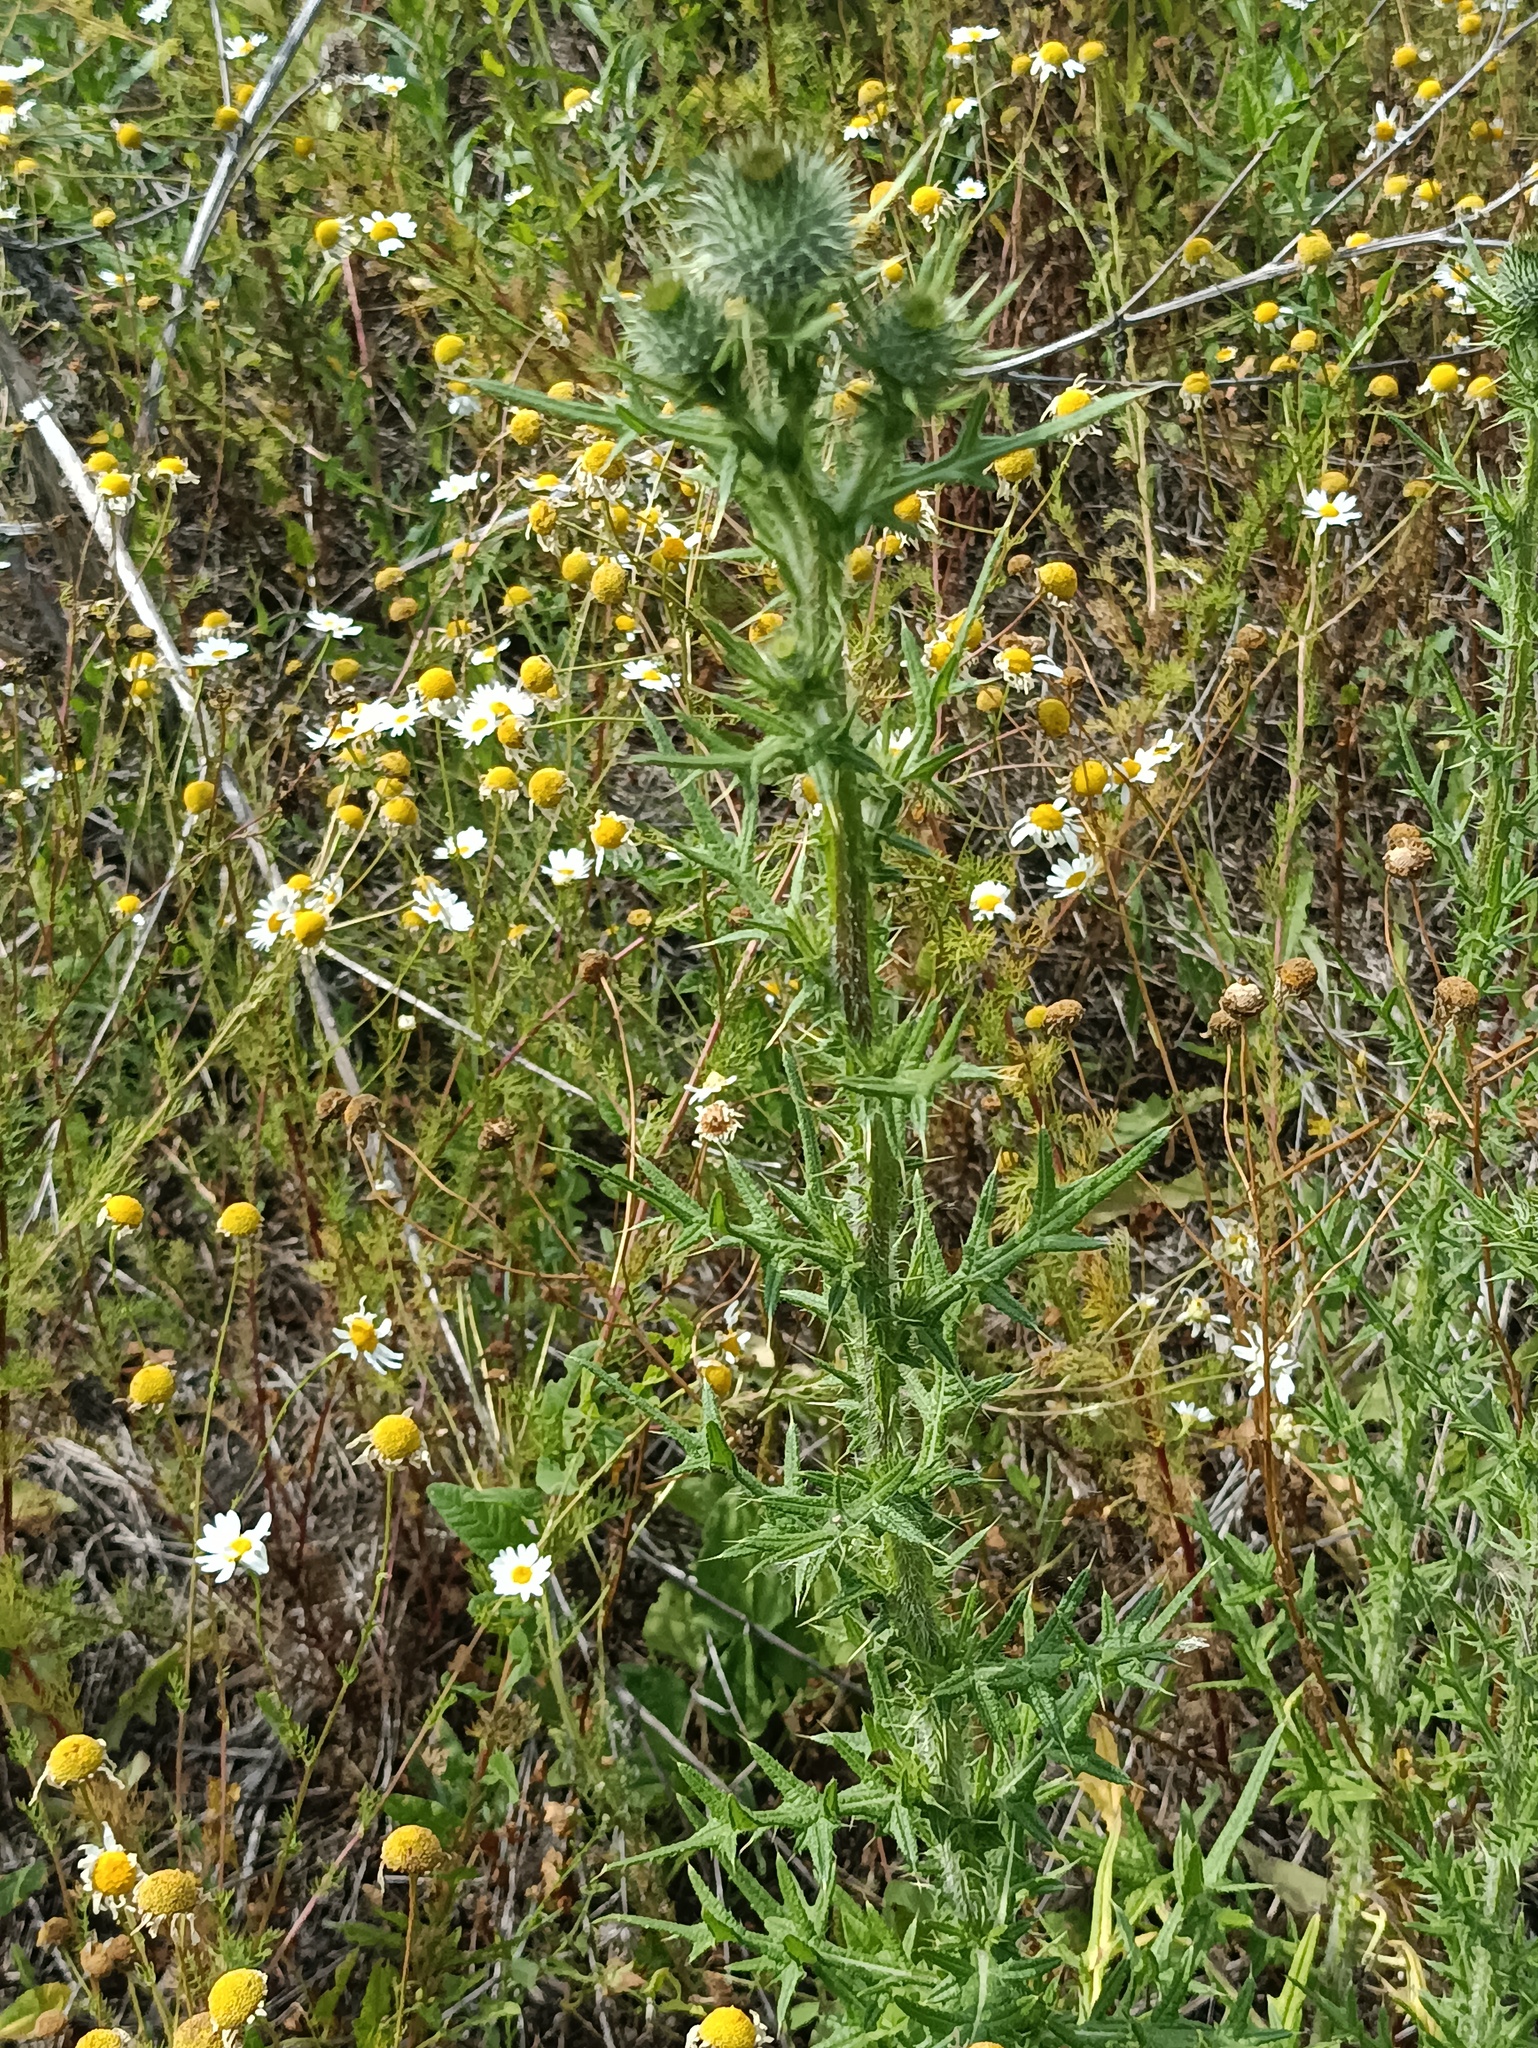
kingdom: Plantae
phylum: Tracheophyta
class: Magnoliopsida
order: Asterales
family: Asteraceae
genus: Cirsium
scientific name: Cirsium vulgare
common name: Bull thistle
